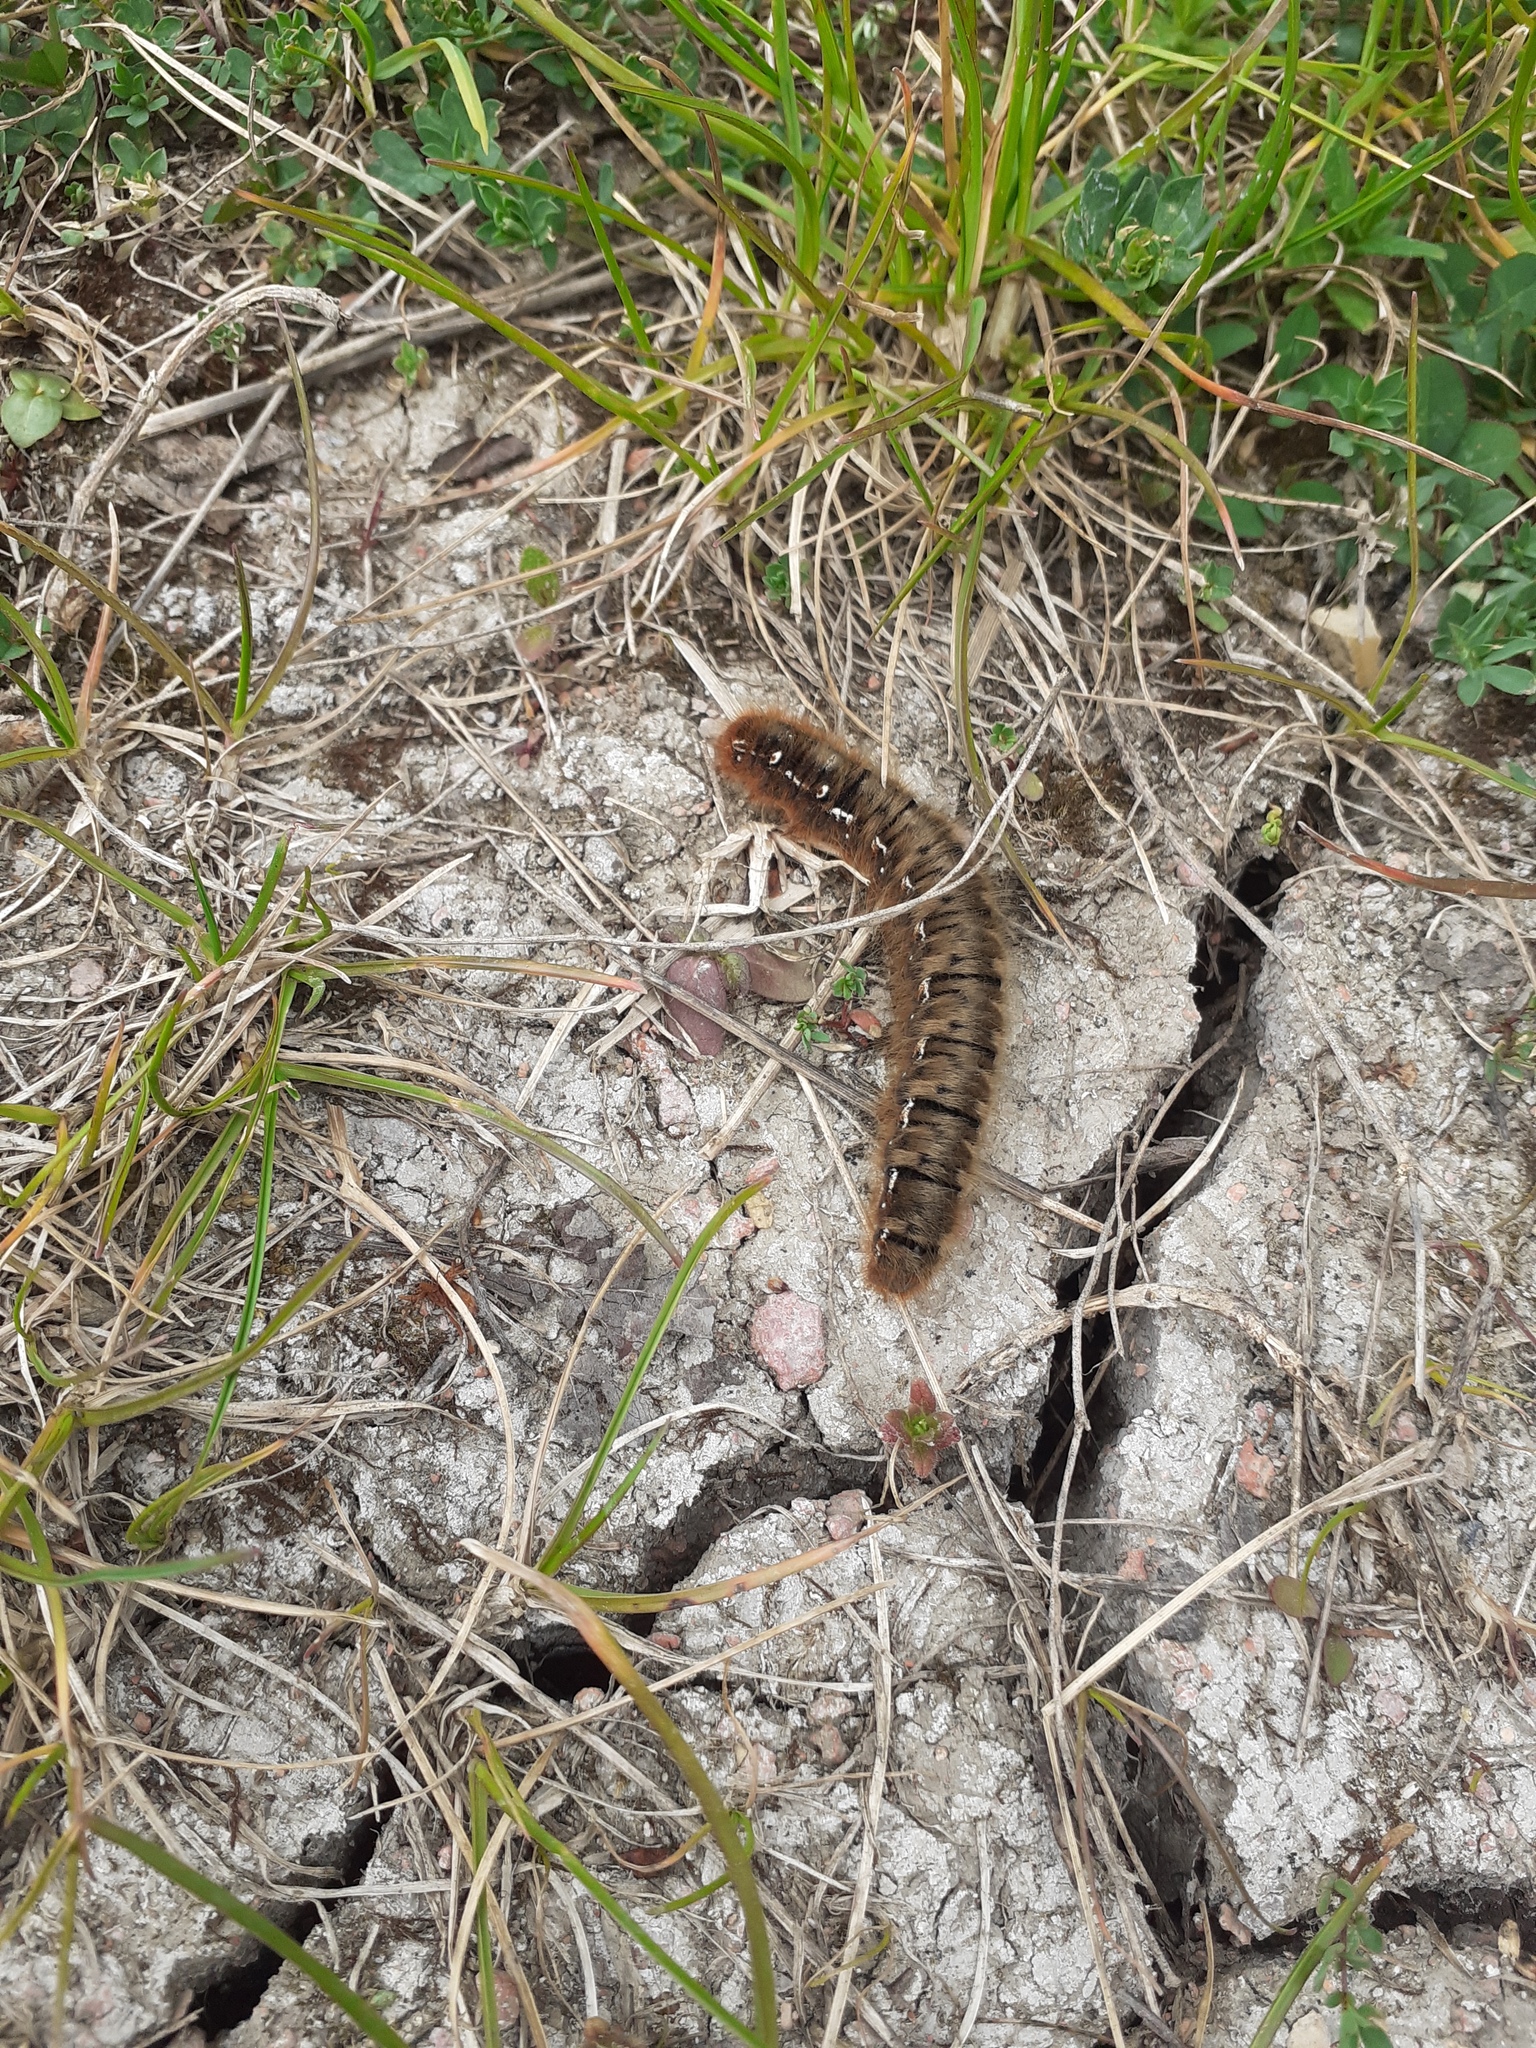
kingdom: Animalia
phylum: Arthropoda
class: Insecta
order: Lepidoptera
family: Lasiocampidae
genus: Lasiocampa
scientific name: Lasiocampa quercus
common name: Oak eggar
